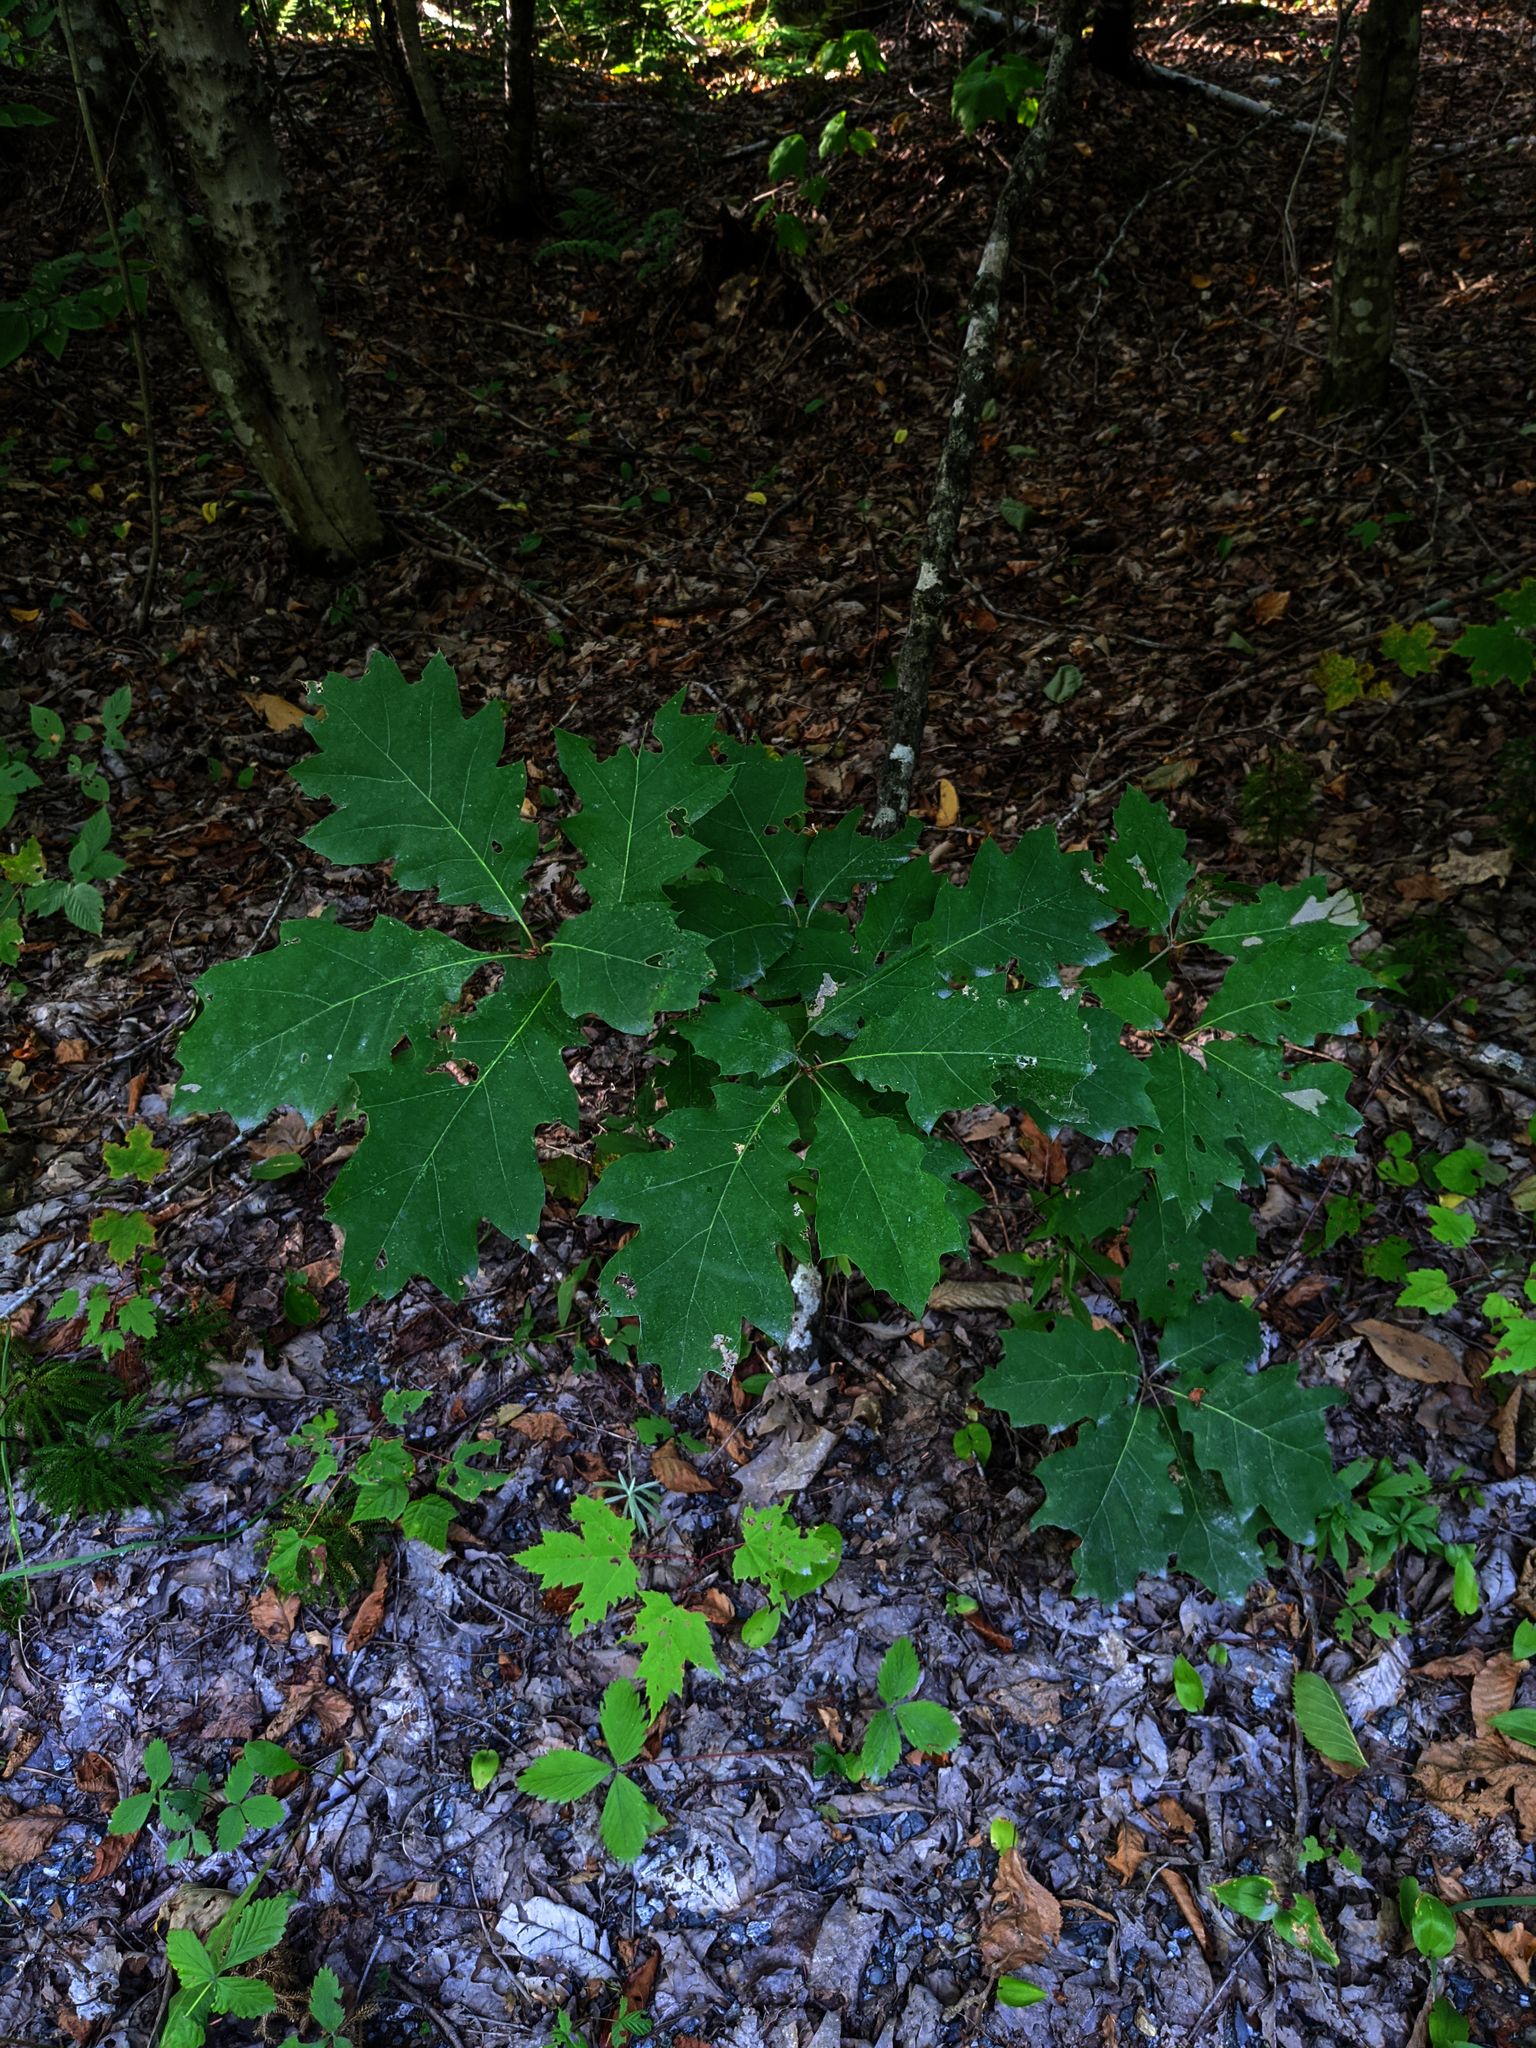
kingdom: Plantae
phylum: Tracheophyta
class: Magnoliopsida
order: Fagales
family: Fagaceae
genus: Quercus
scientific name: Quercus rubra
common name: Red oak
